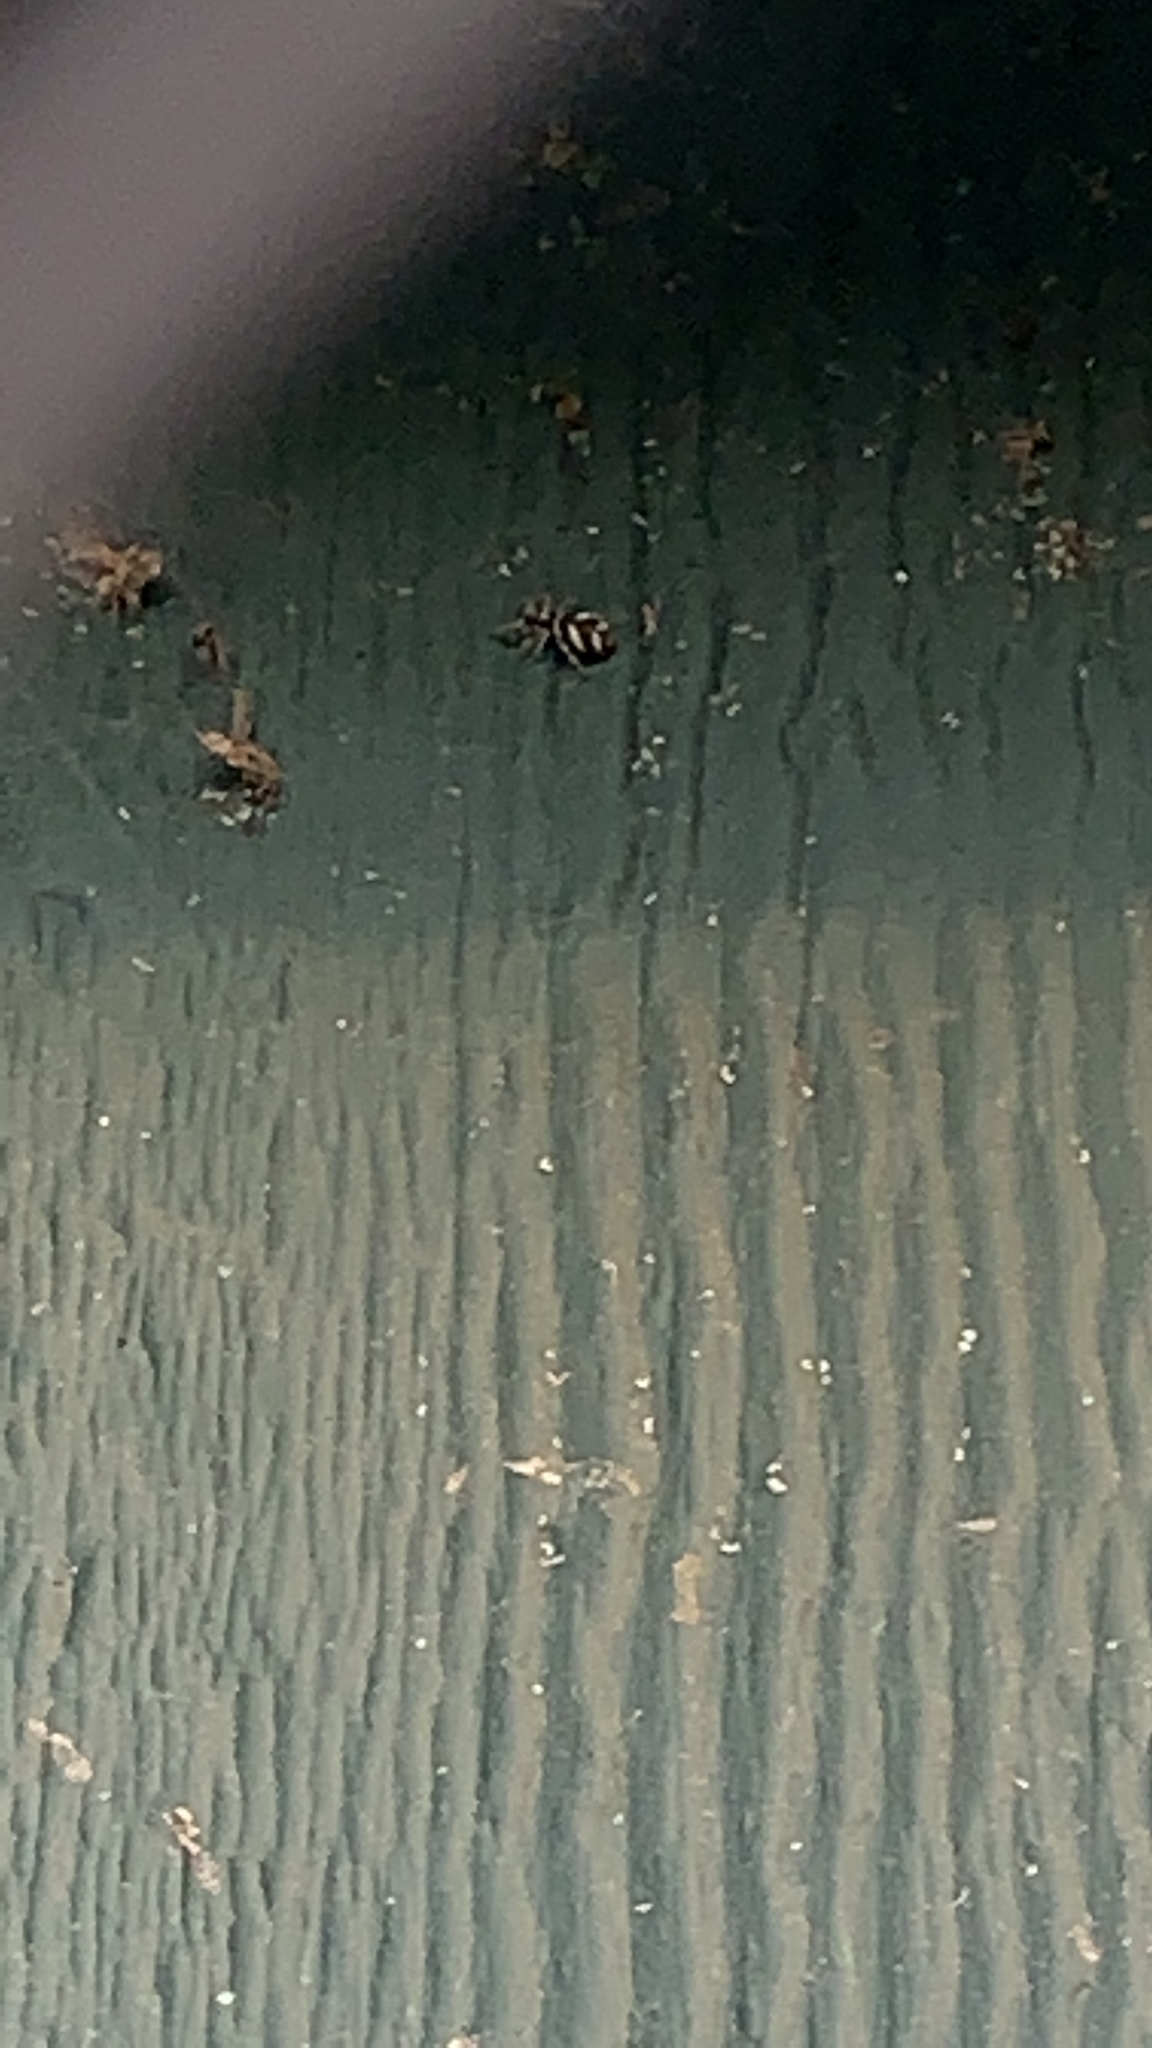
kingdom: Animalia
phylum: Arthropoda
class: Arachnida
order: Araneae
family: Salticidae
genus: Salticus
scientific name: Salticus scenicus
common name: Zebra jumper
